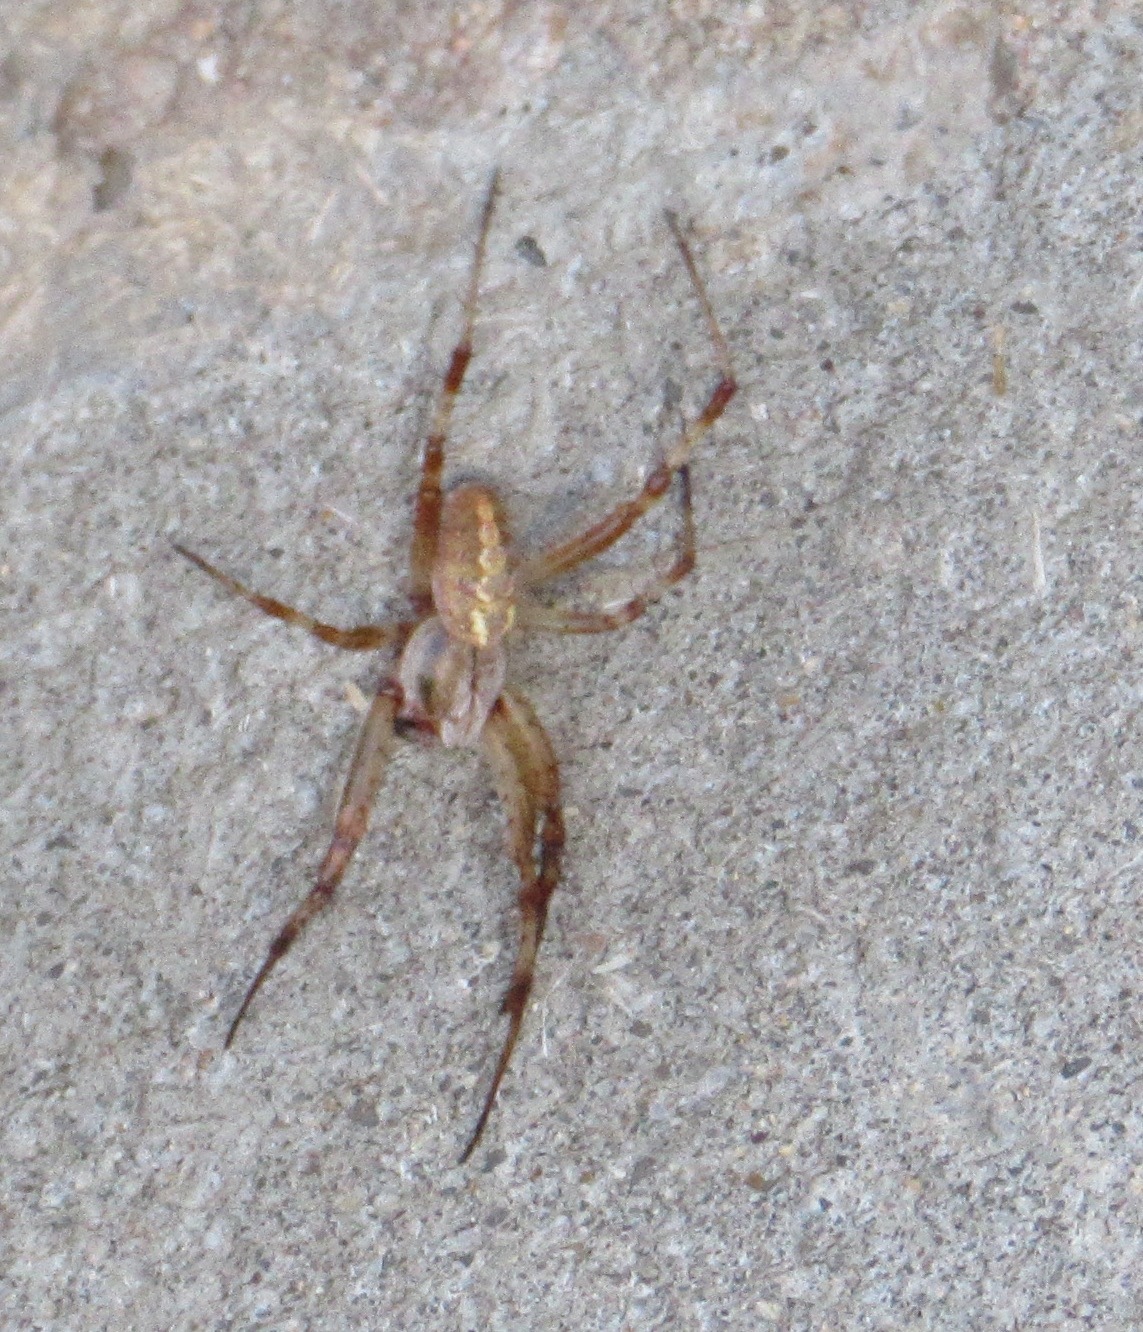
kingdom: Animalia
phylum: Arthropoda
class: Arachnida
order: Araneae
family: Araneidae
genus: Neoscona
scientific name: Neoscona oaxacensis
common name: Orb weavers
